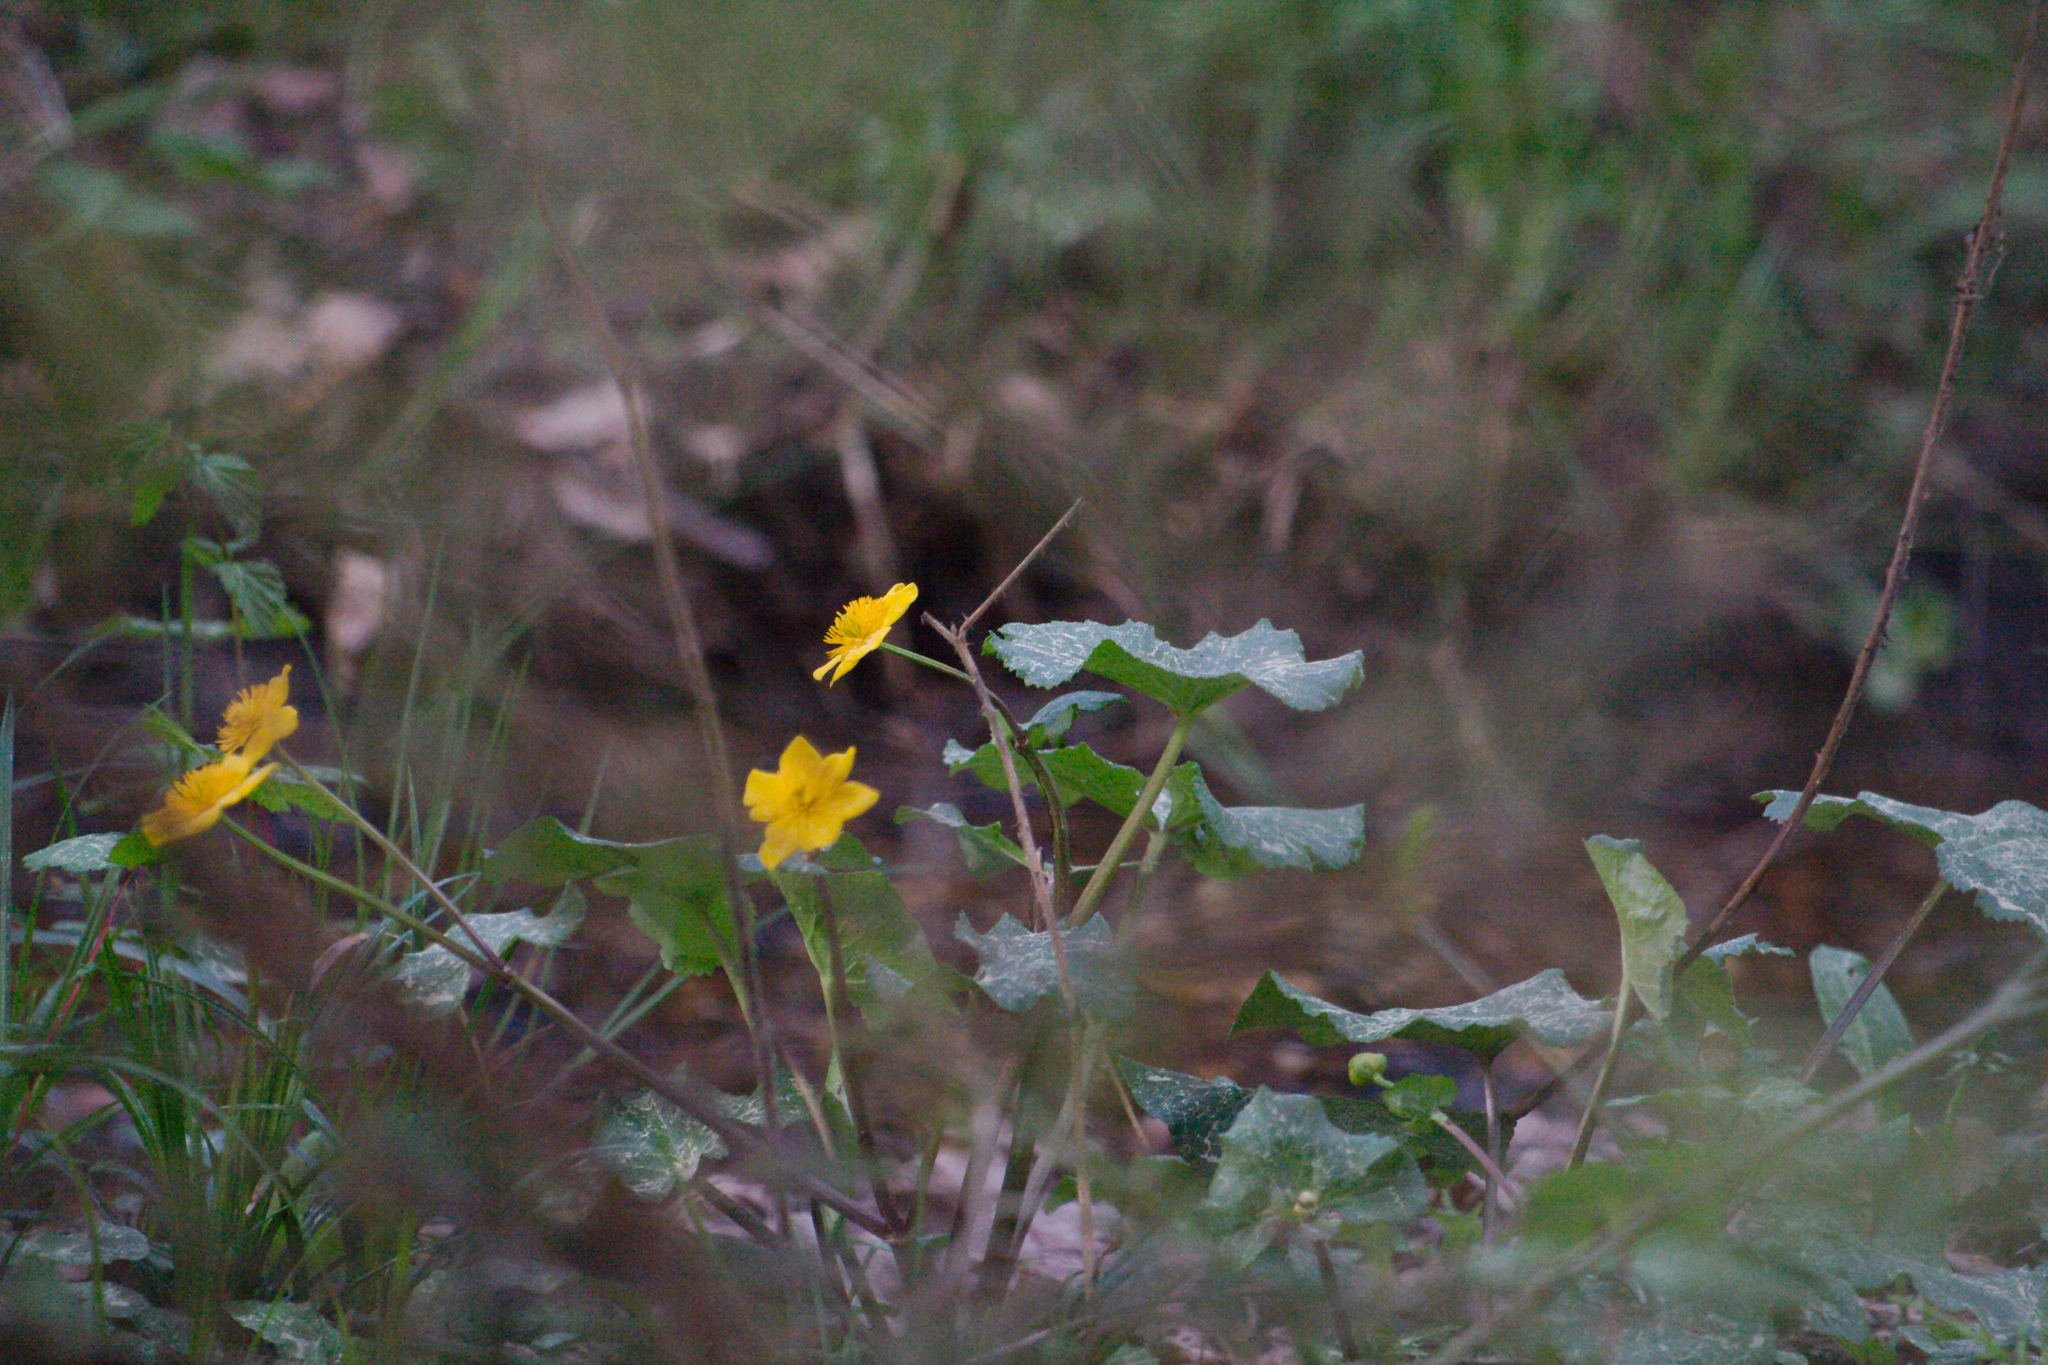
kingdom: Plantae
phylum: Tracheophyta
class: Magnoliopsida
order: Ranunculales
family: Ranunculaceae
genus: Caltha
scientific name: Caltha palustris
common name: Marsh marigold
